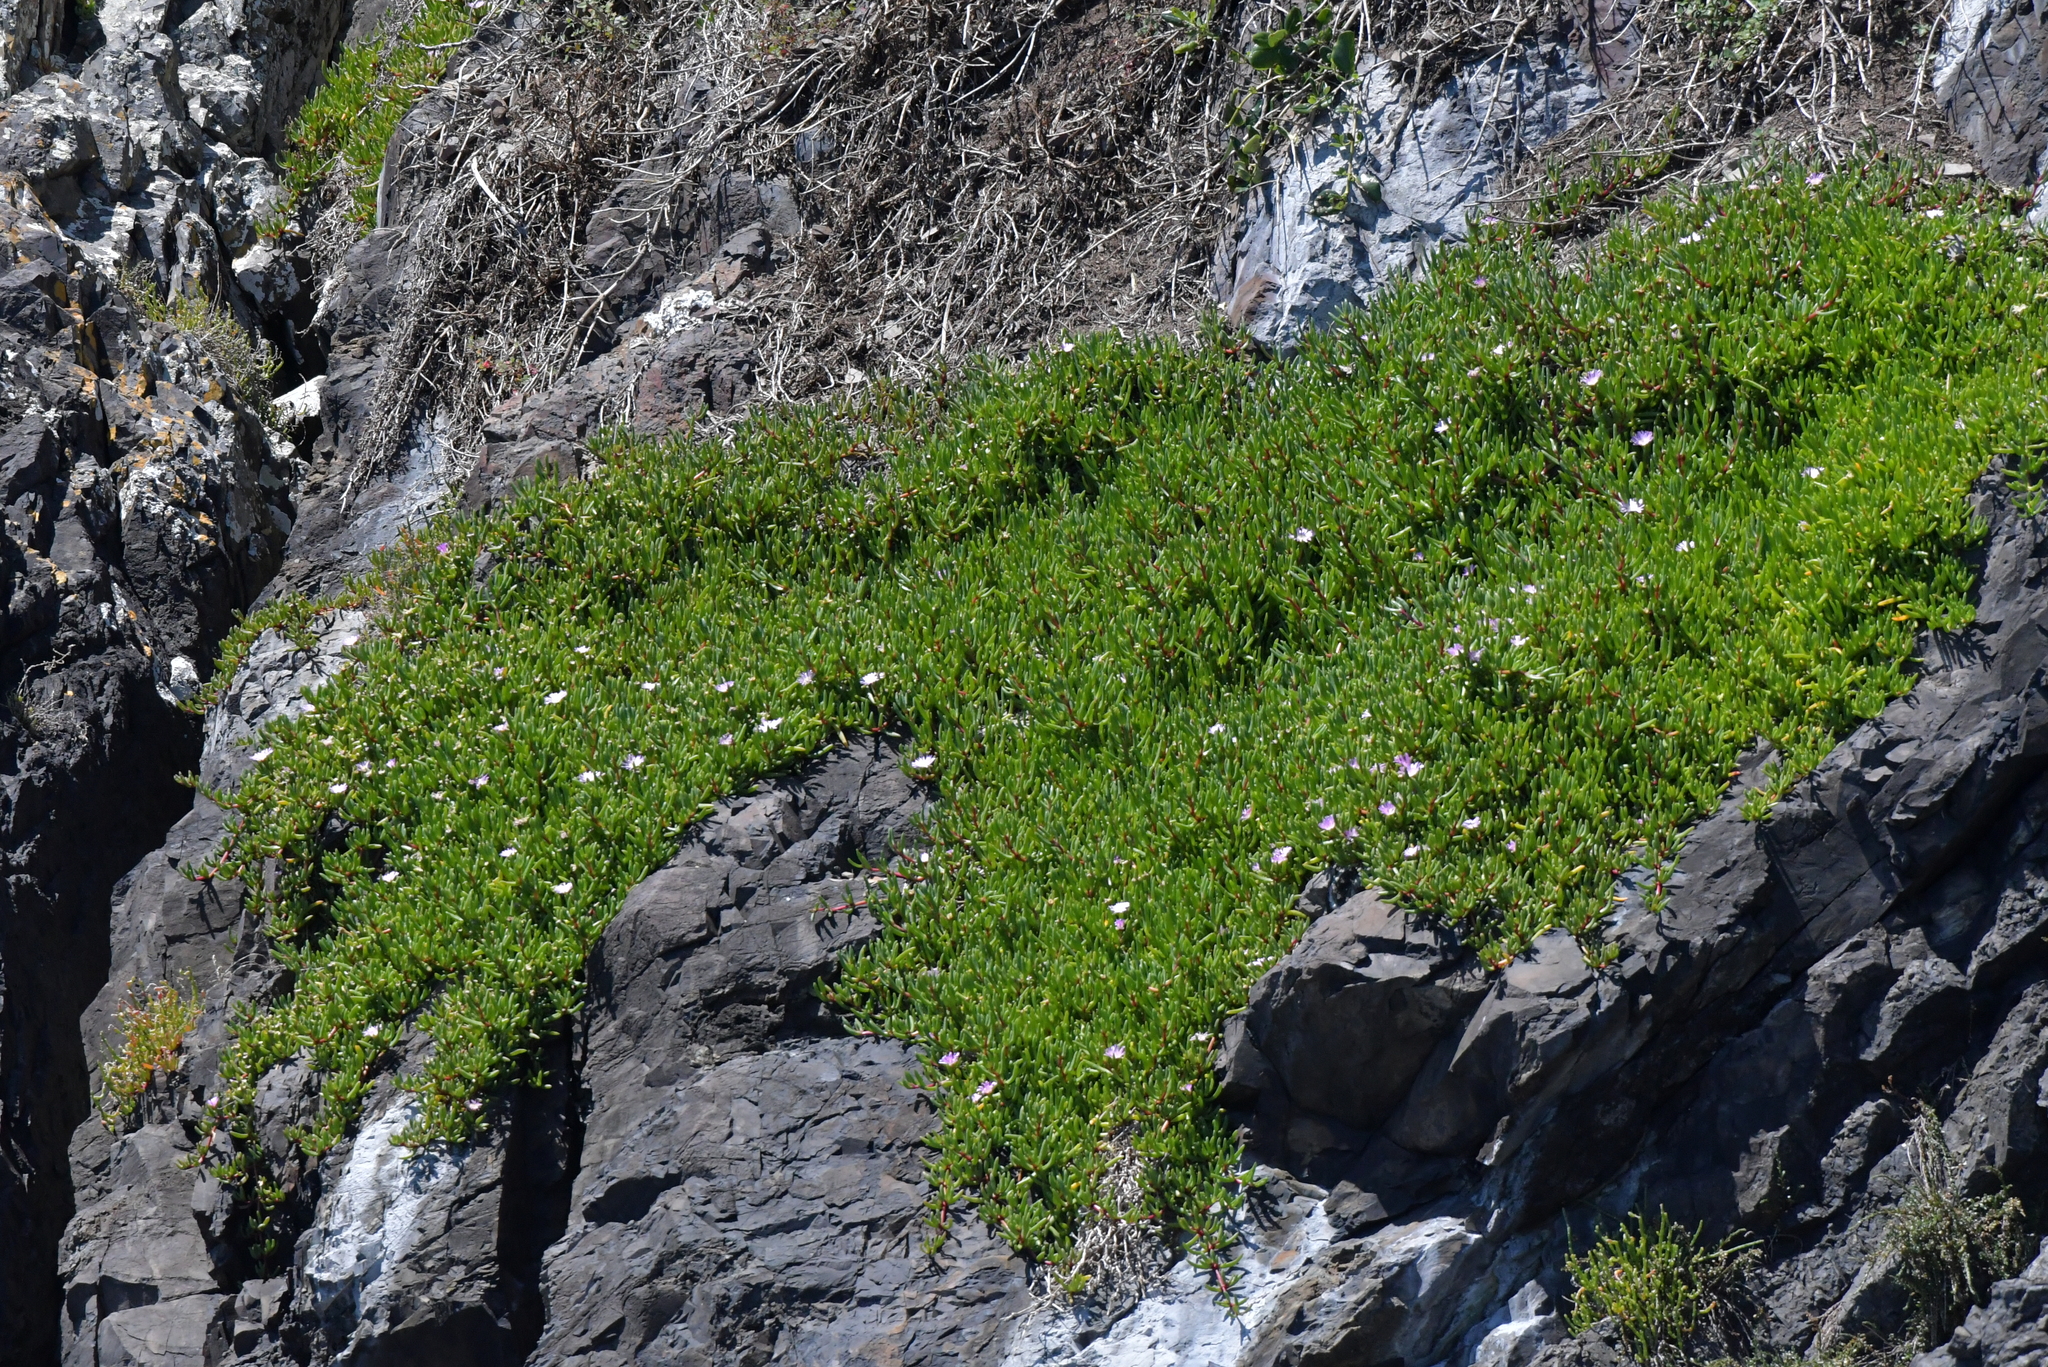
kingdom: Plantae
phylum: Tracheophyta
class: Magnoliopsida
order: Caryophyllales
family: Aizoaceae
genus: Disphyma
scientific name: Disphyma australe
